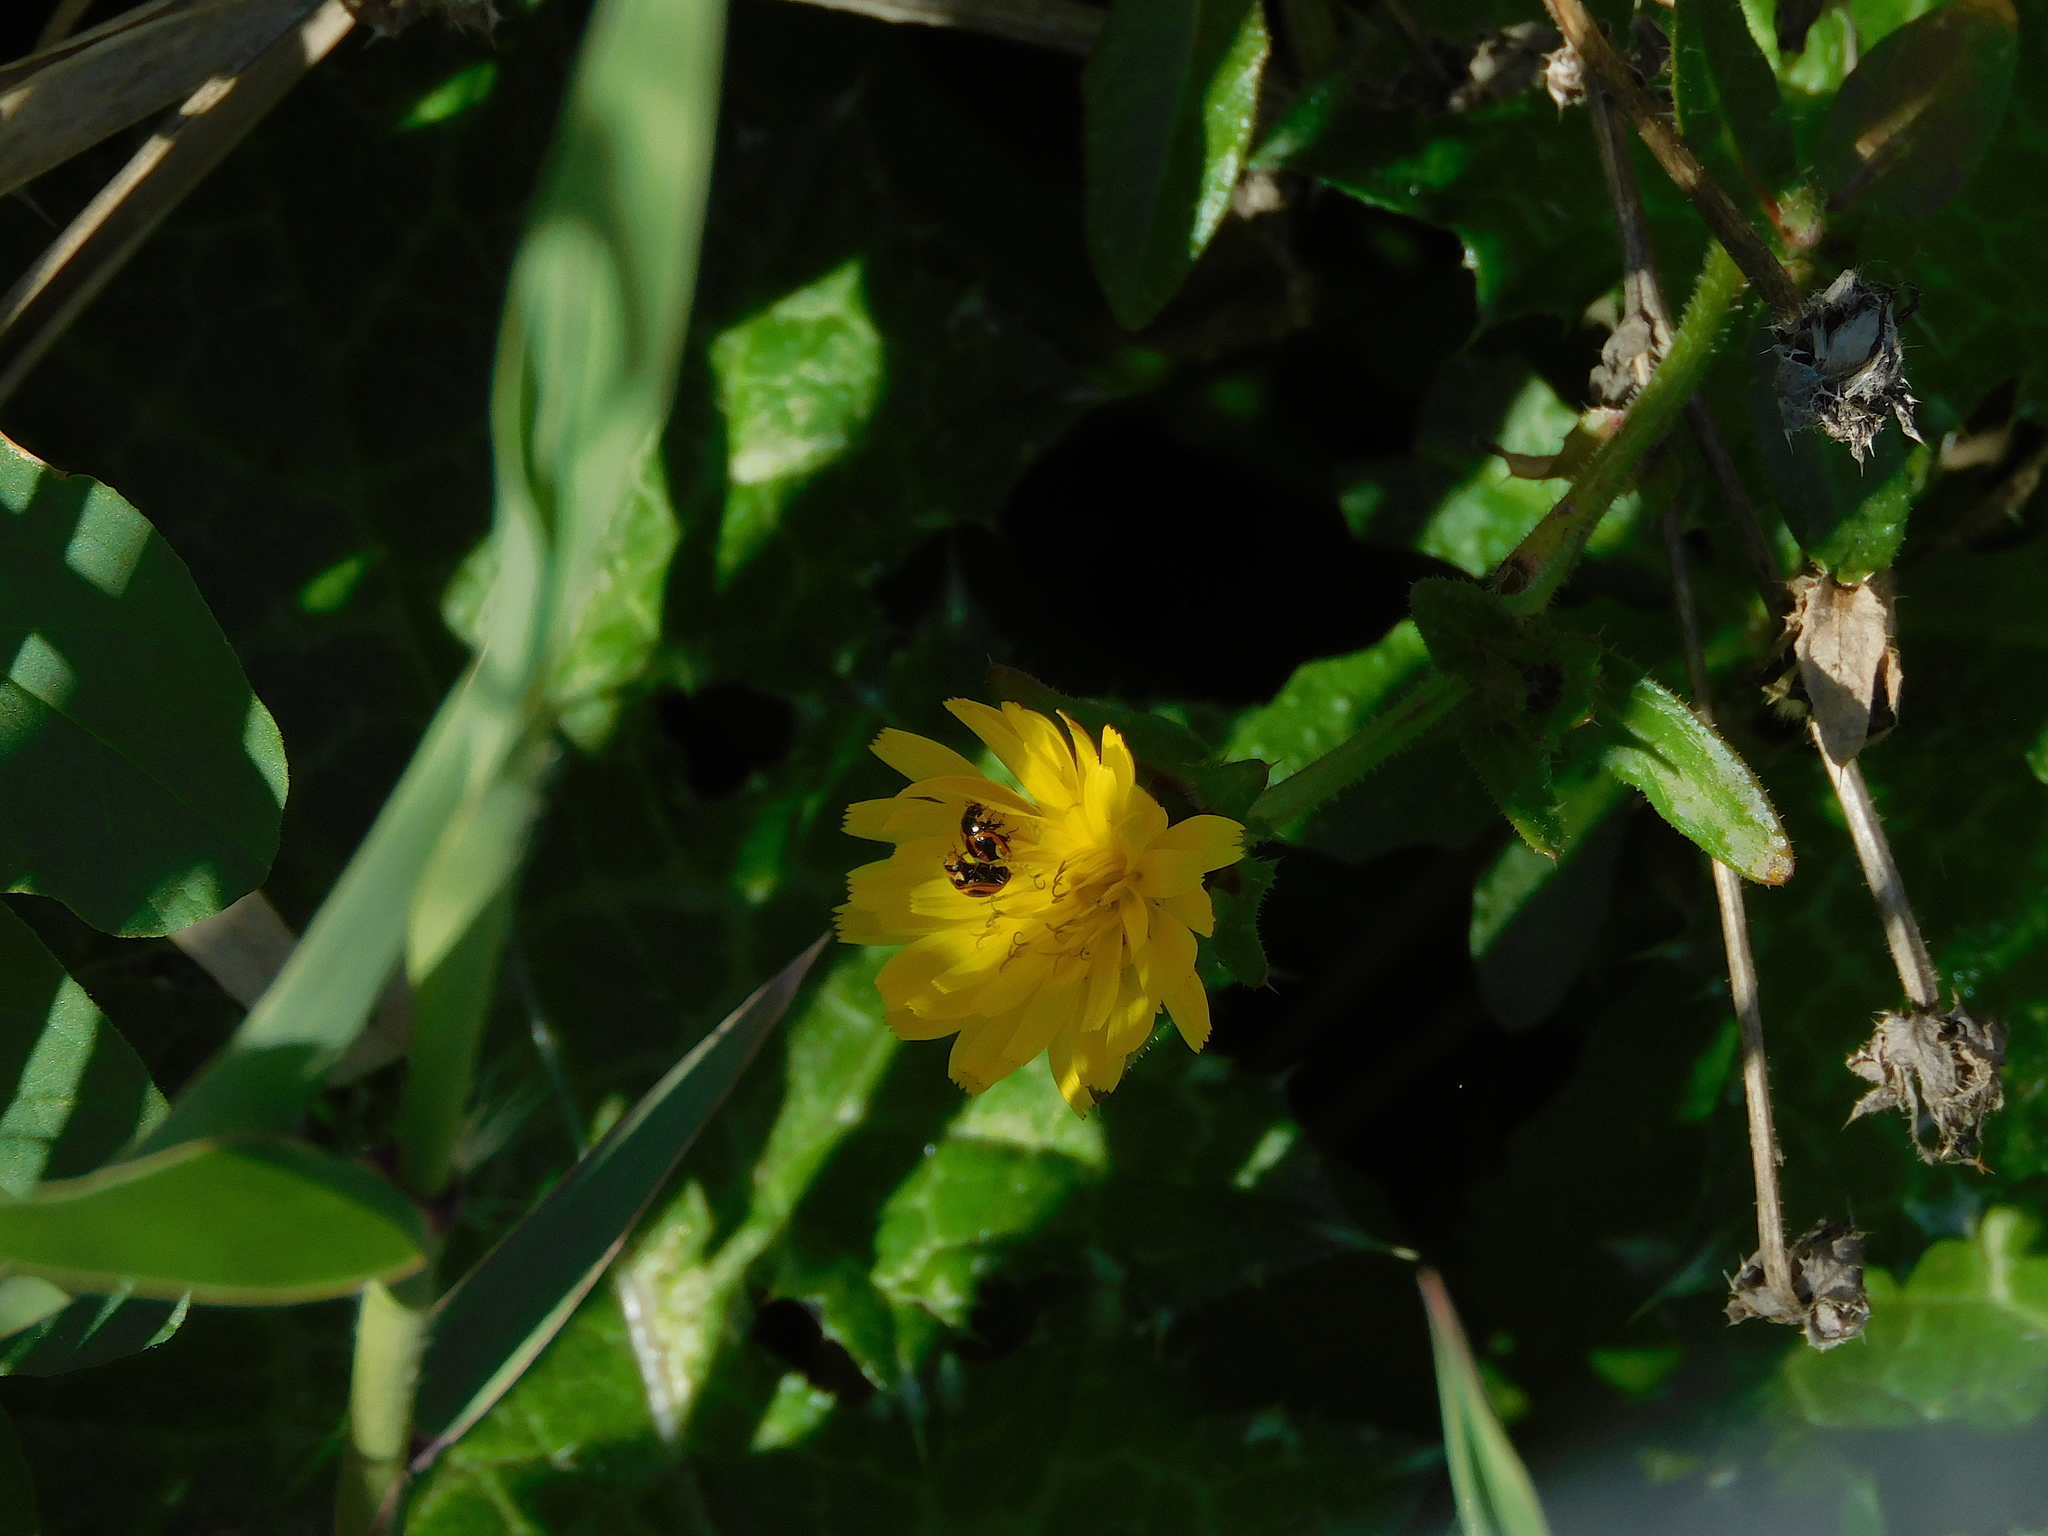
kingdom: Animalia
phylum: Arthropoda
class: Insecta
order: Coleoptera
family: Coccinellidae
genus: Micraspis
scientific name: Micraspis frenata
